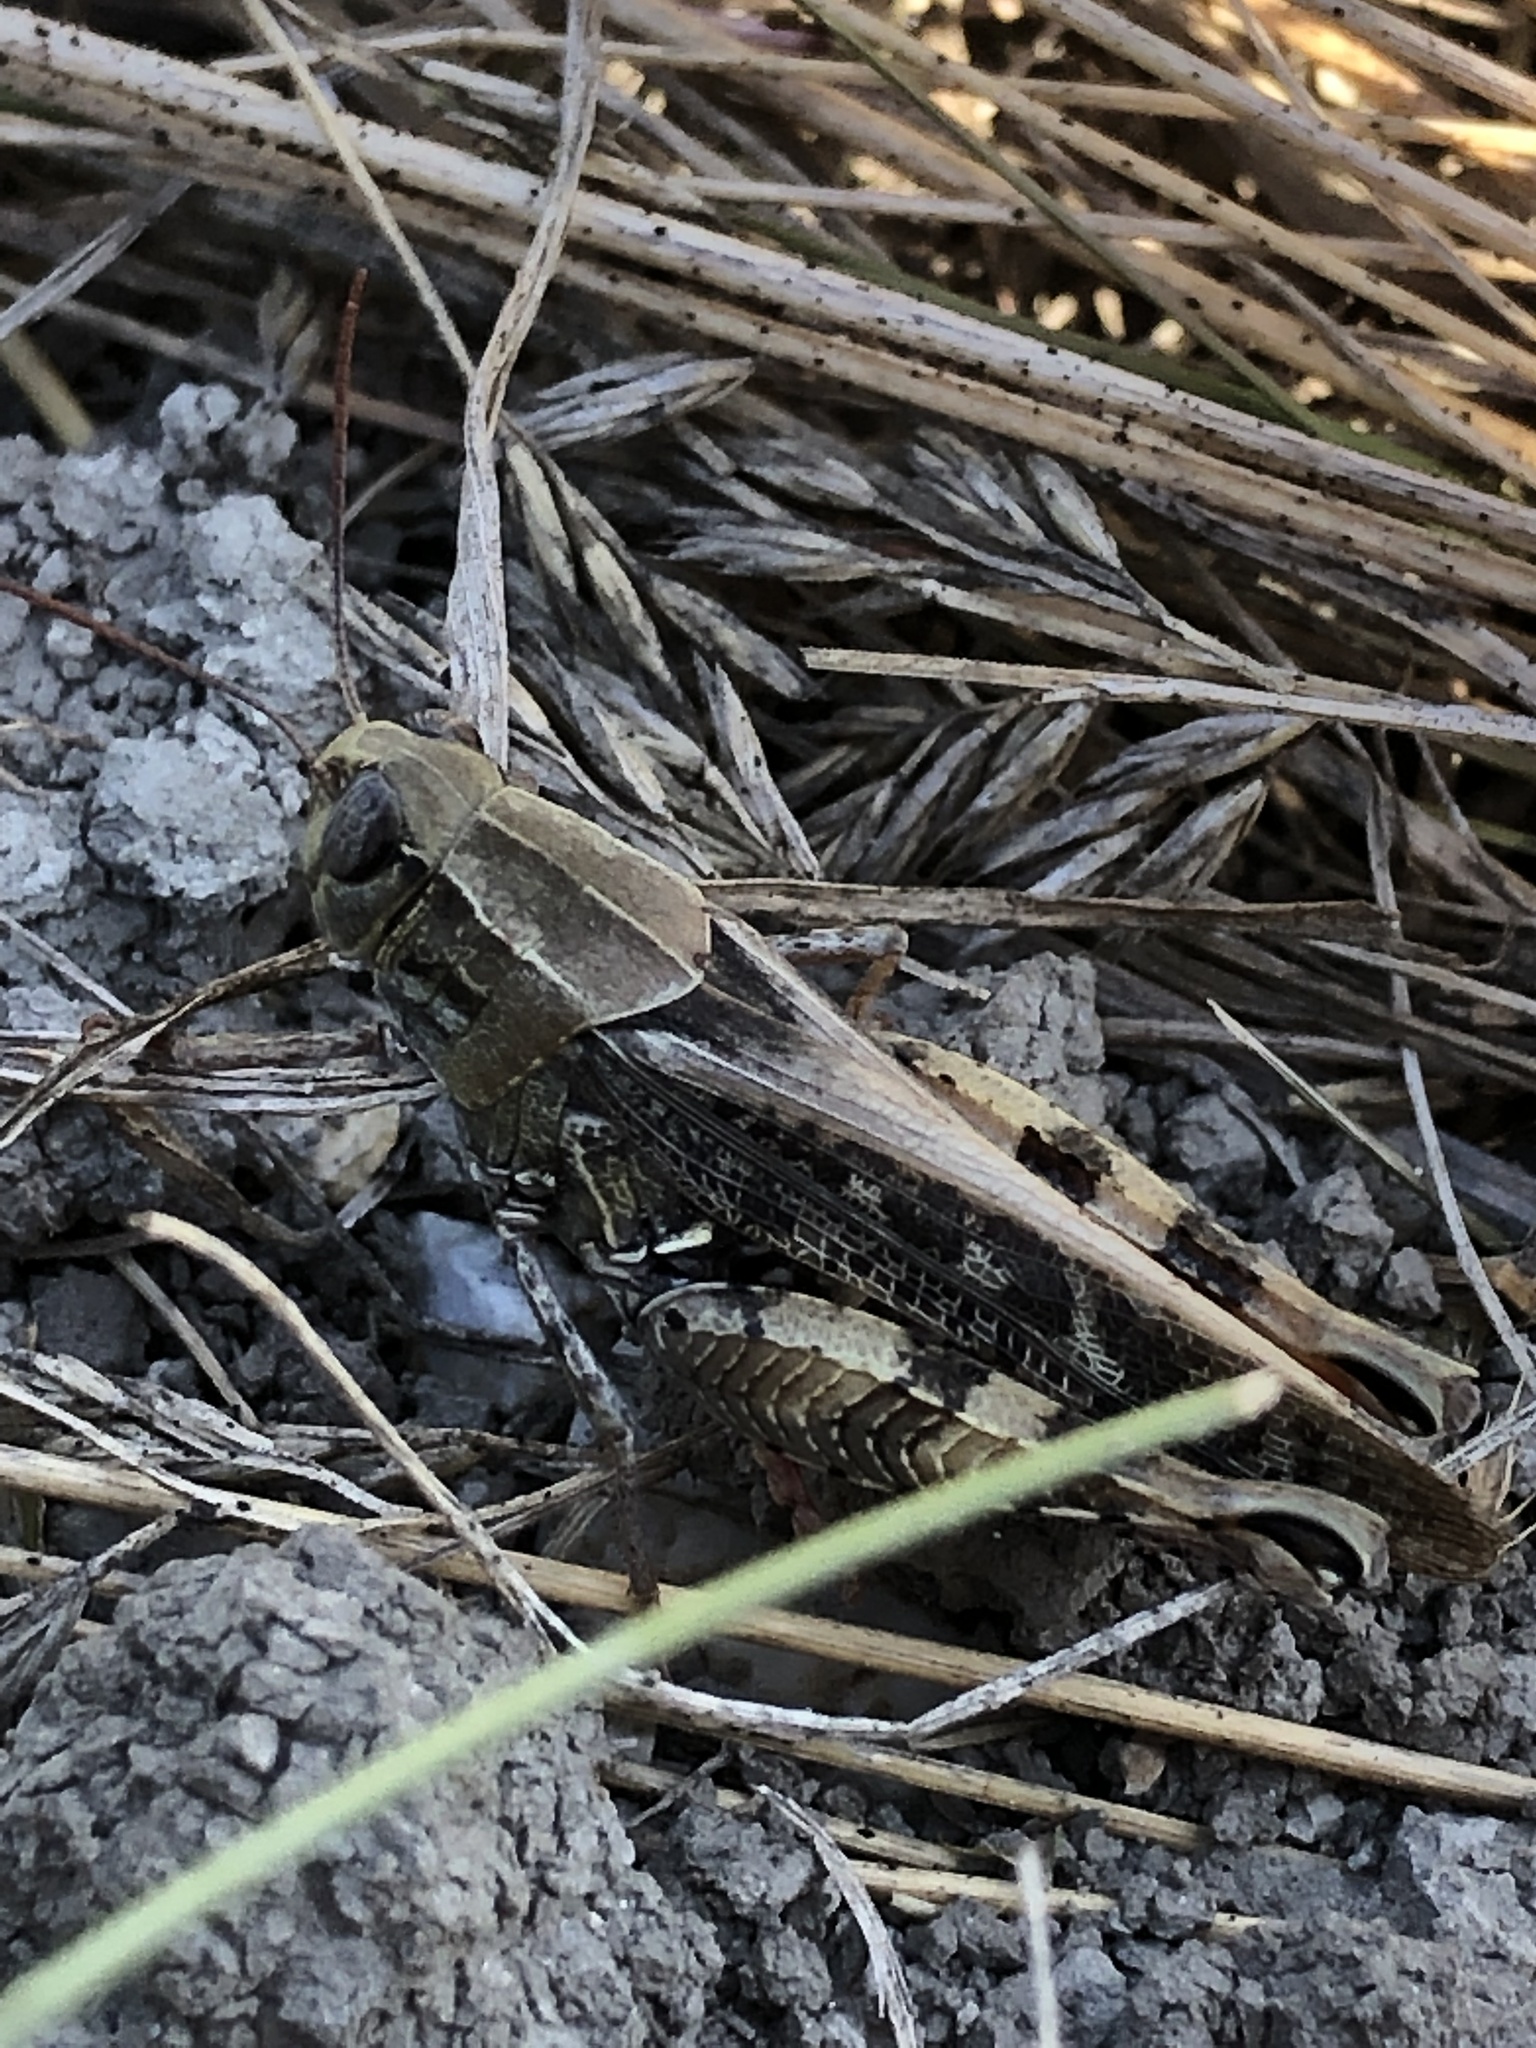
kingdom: Animalia
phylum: Arthropoda
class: Insecta
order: Orthoptera
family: Acrididae
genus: Calliptamus
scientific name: Calliptamus italicus
